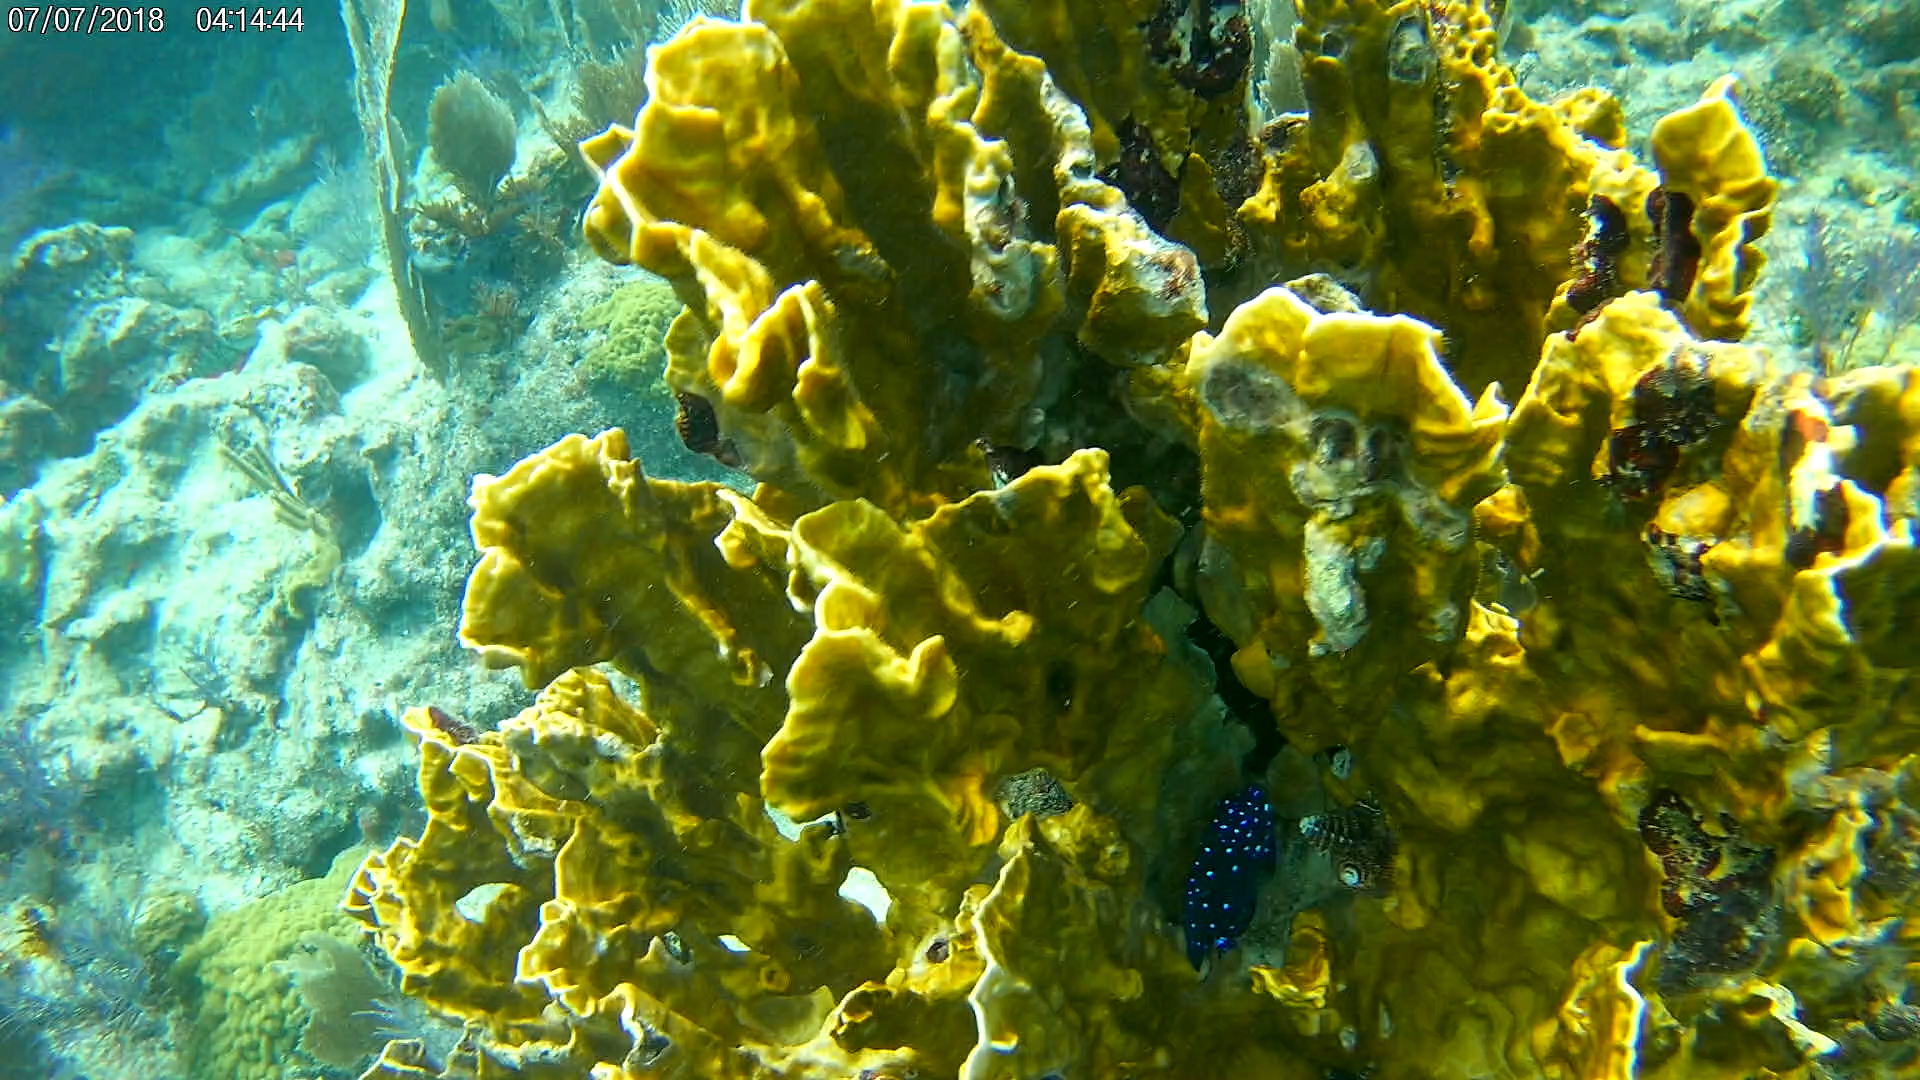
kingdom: Animalia
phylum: Chordata
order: Perciformes
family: Pomacentridae
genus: Microspathodon
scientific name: Microspathodon chrysurus
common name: Yellowtail damselfish
